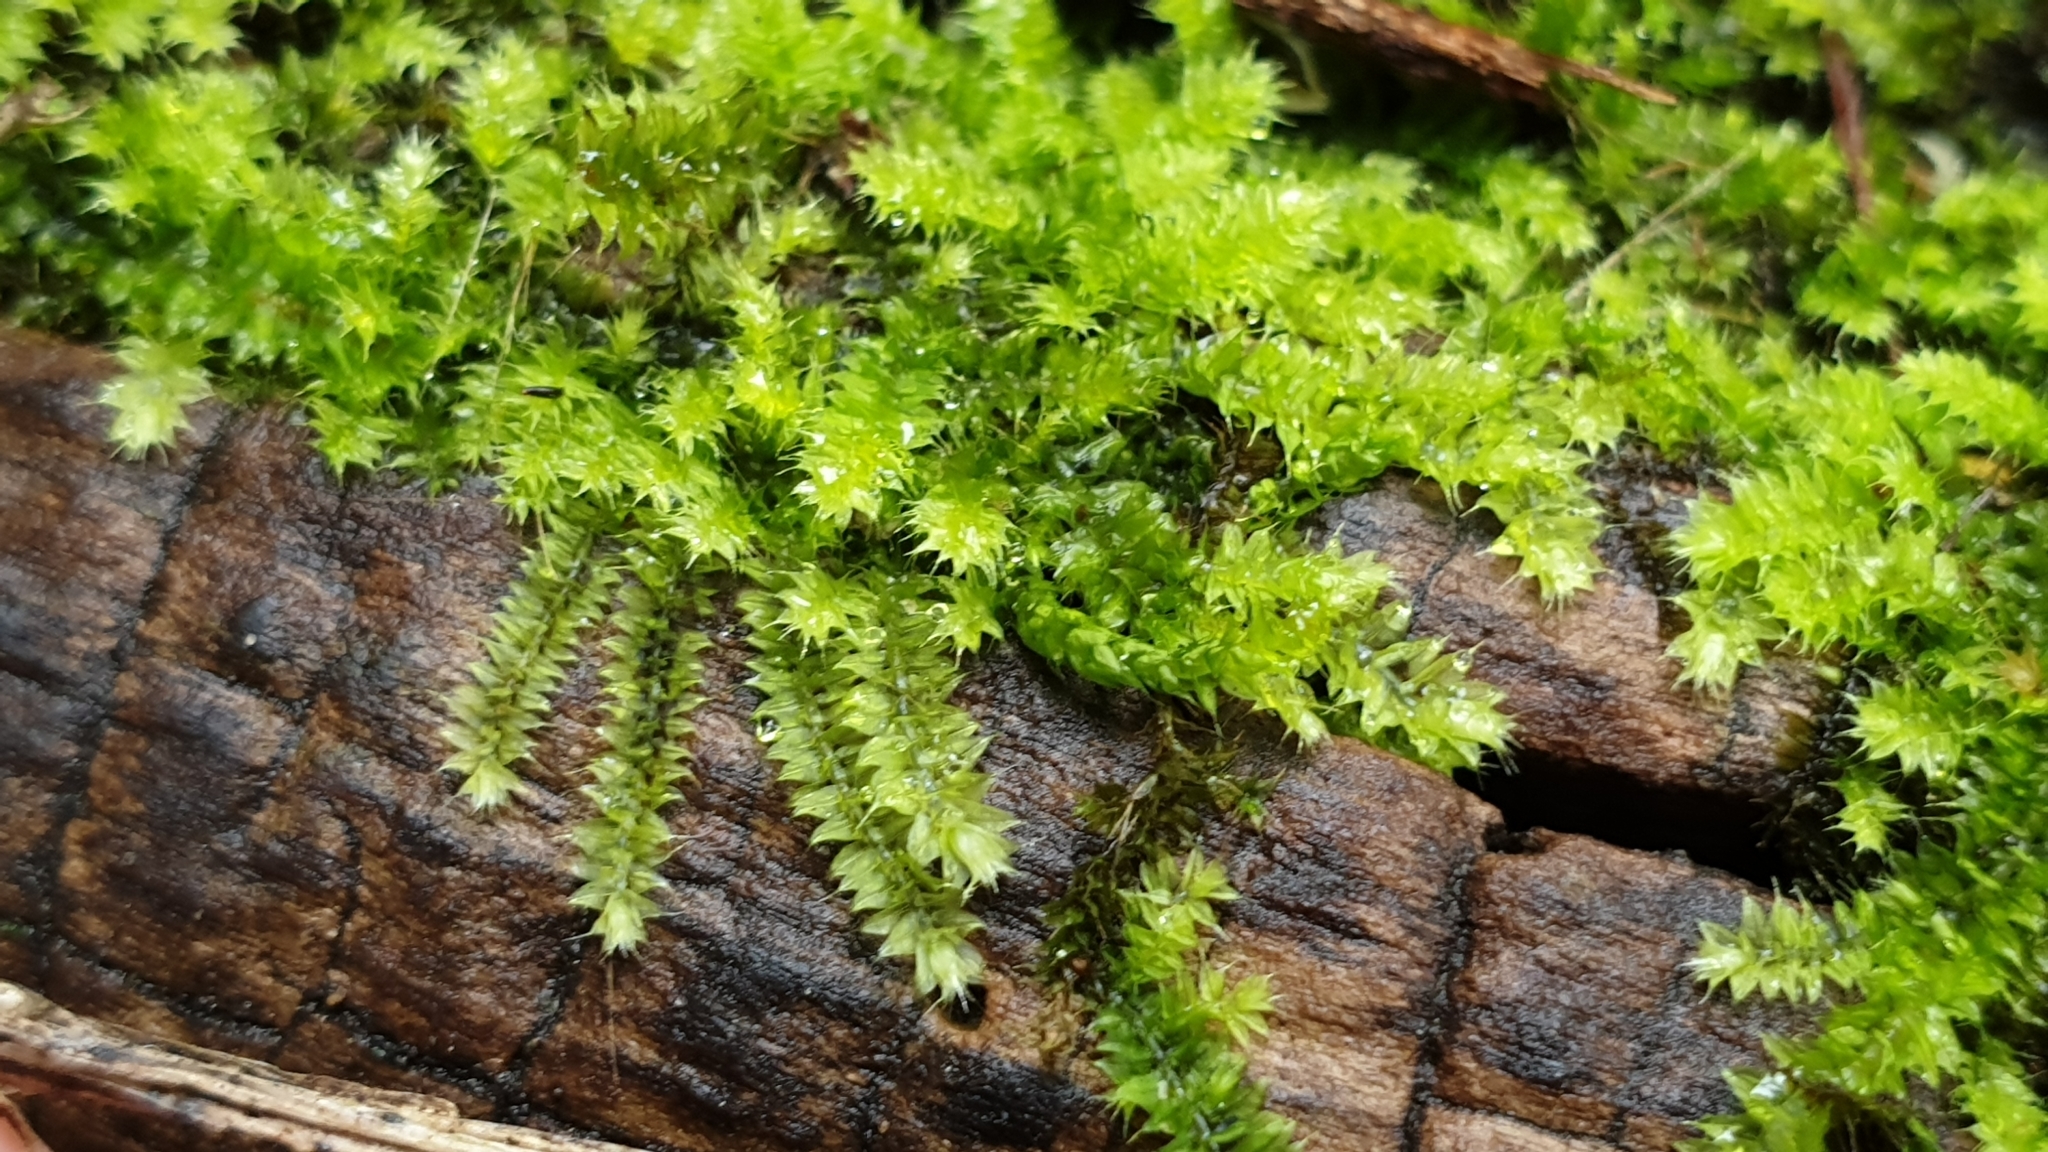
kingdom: Plantae
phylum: Bryophyta
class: Bryopsida
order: Hypnodendrales
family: Racopilaceae
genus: Racopilum
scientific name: Racopilum cuspidigerum
